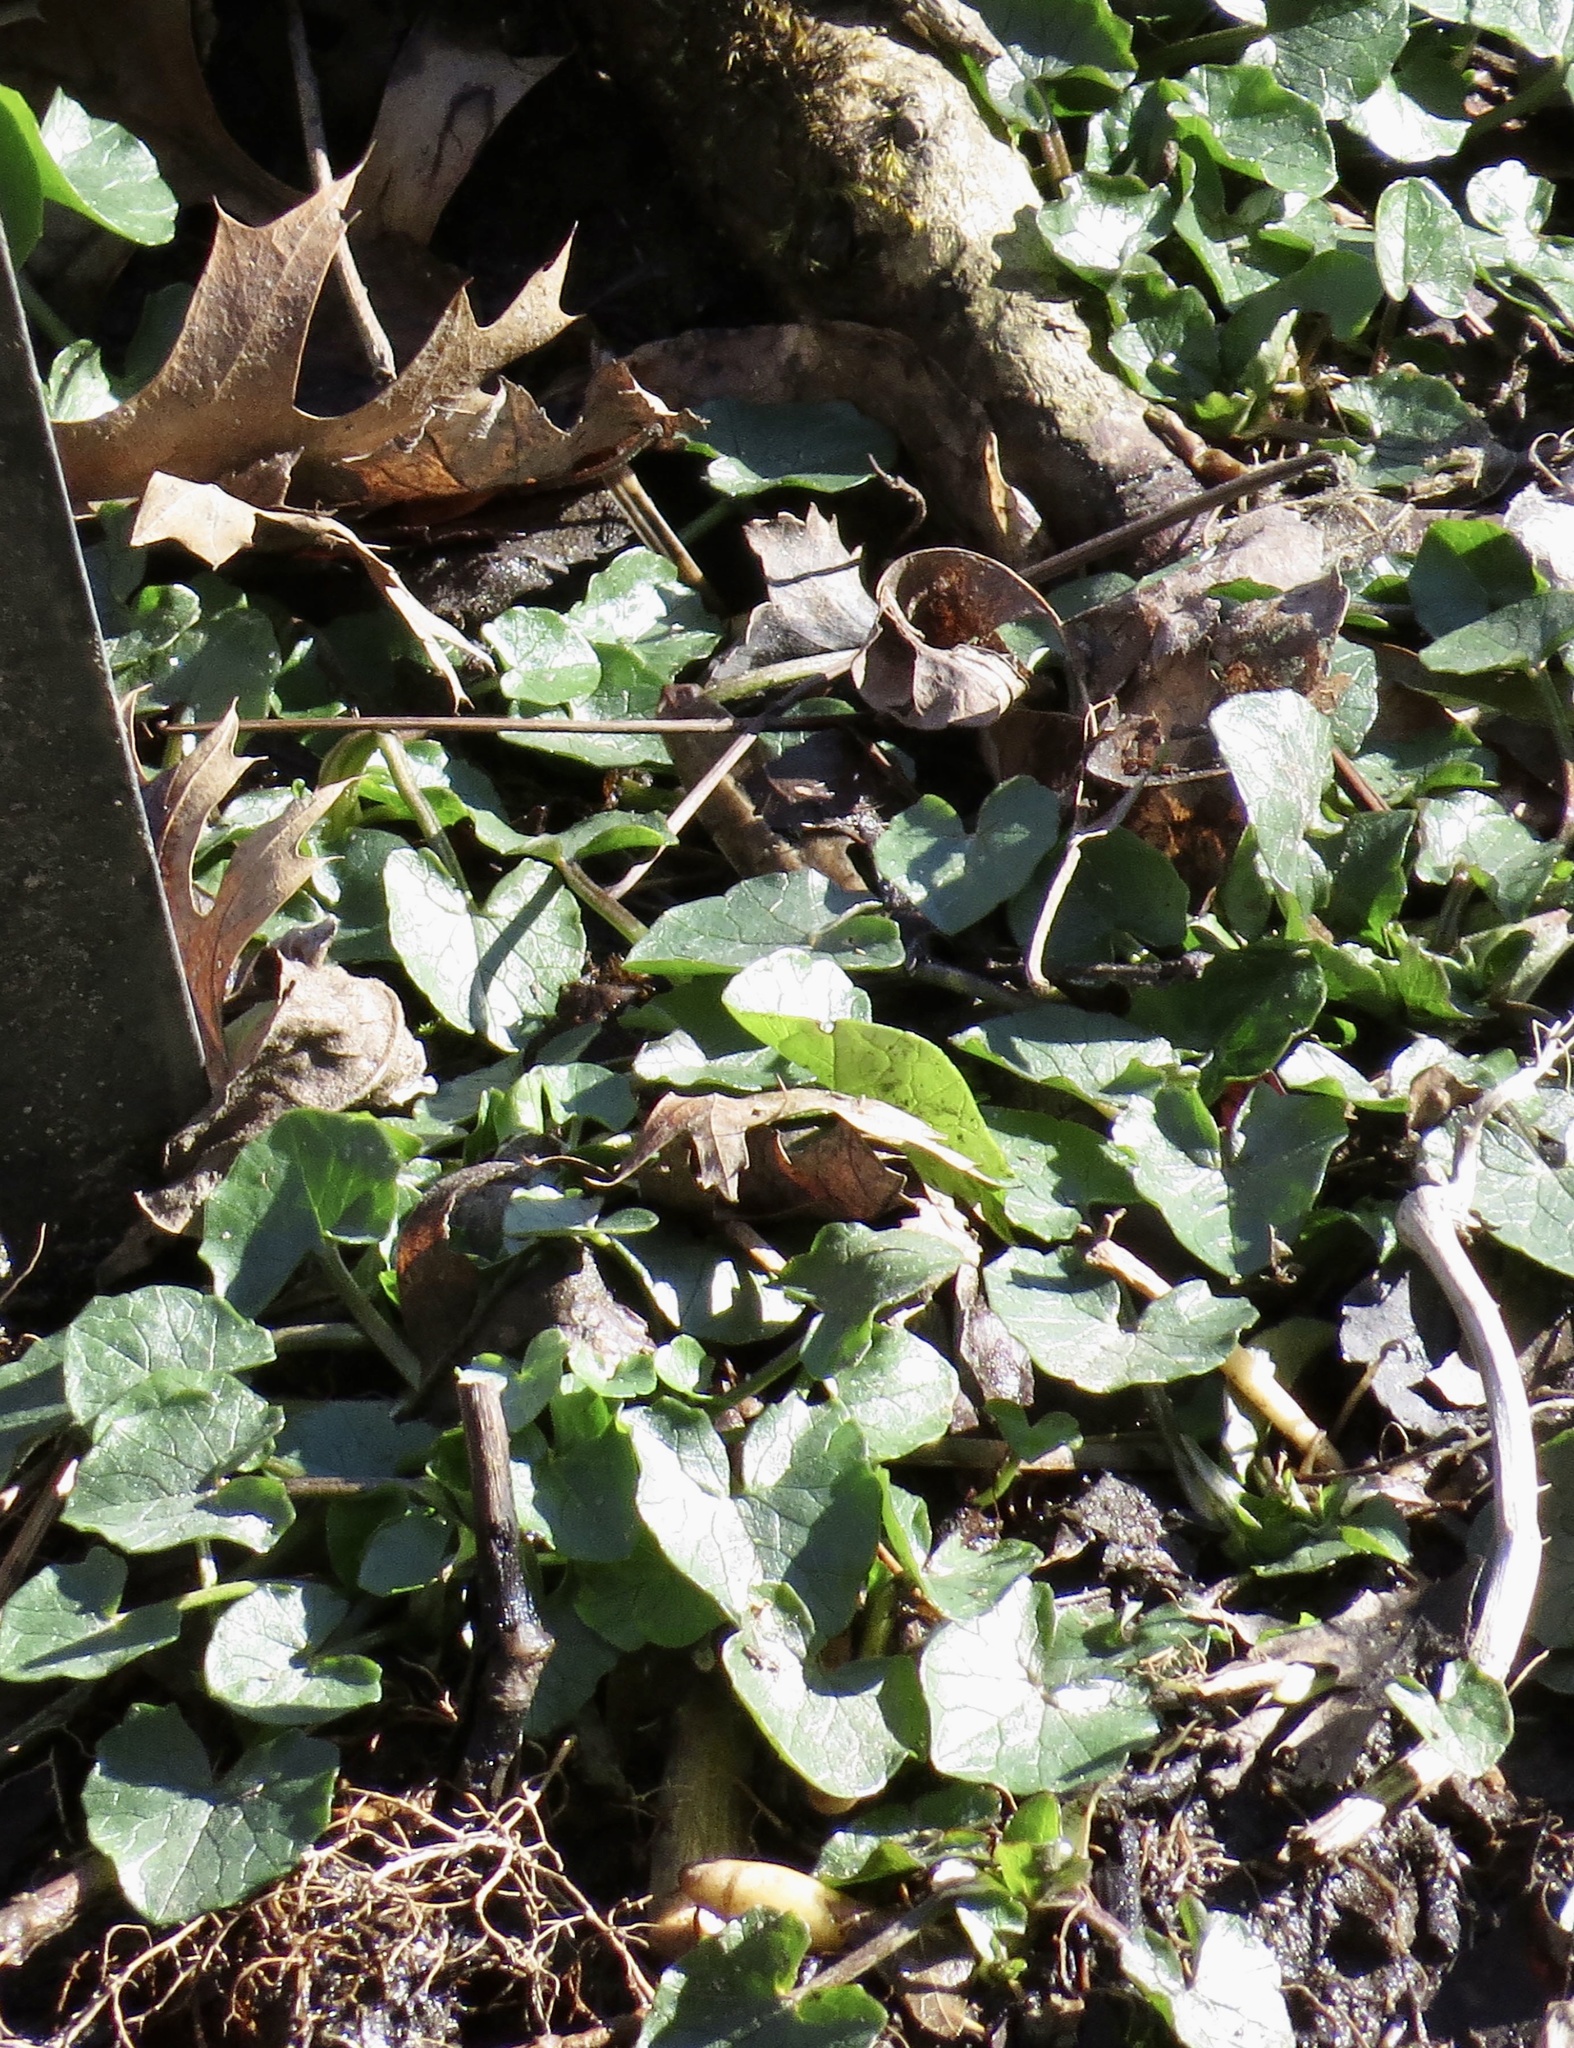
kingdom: Plantae
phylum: Tracheophyta
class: Magnoliopsida
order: Ranunculales
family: Ranunculaceae
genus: Ficaria
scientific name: Ficaria verna
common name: Lesser celandine
